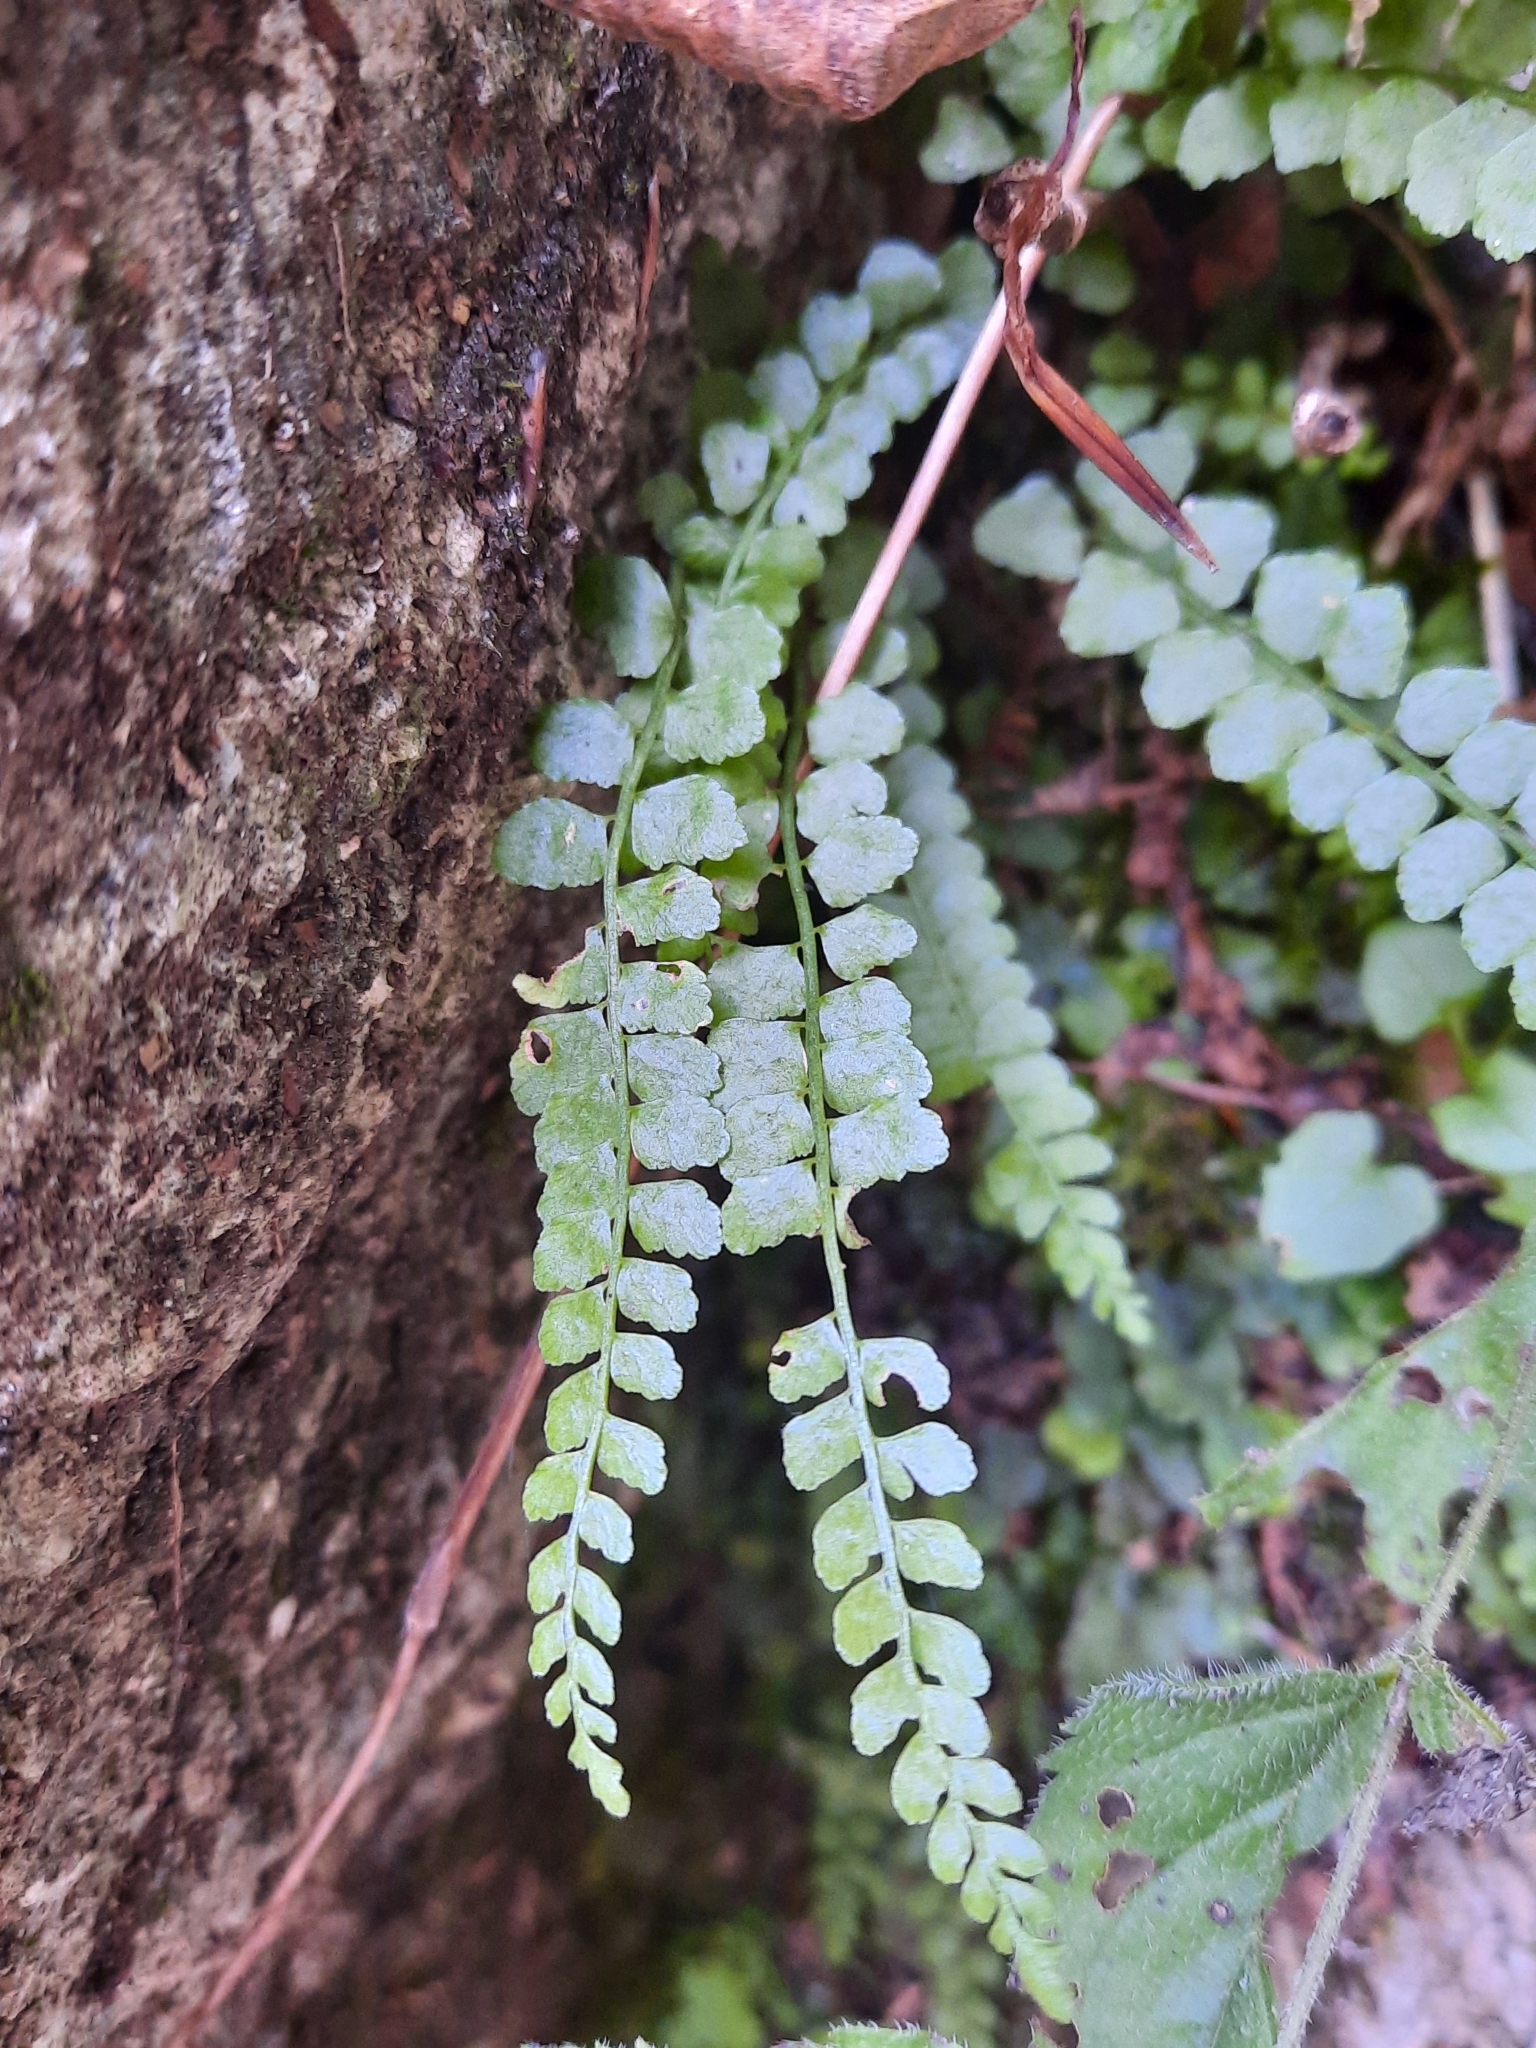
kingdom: Plantae
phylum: Tracheophyta
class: Polypodiopsida
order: Polypodiales
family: Aspleniaceae
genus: Asplenium
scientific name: Asplenium viride
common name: Green spleenwort
